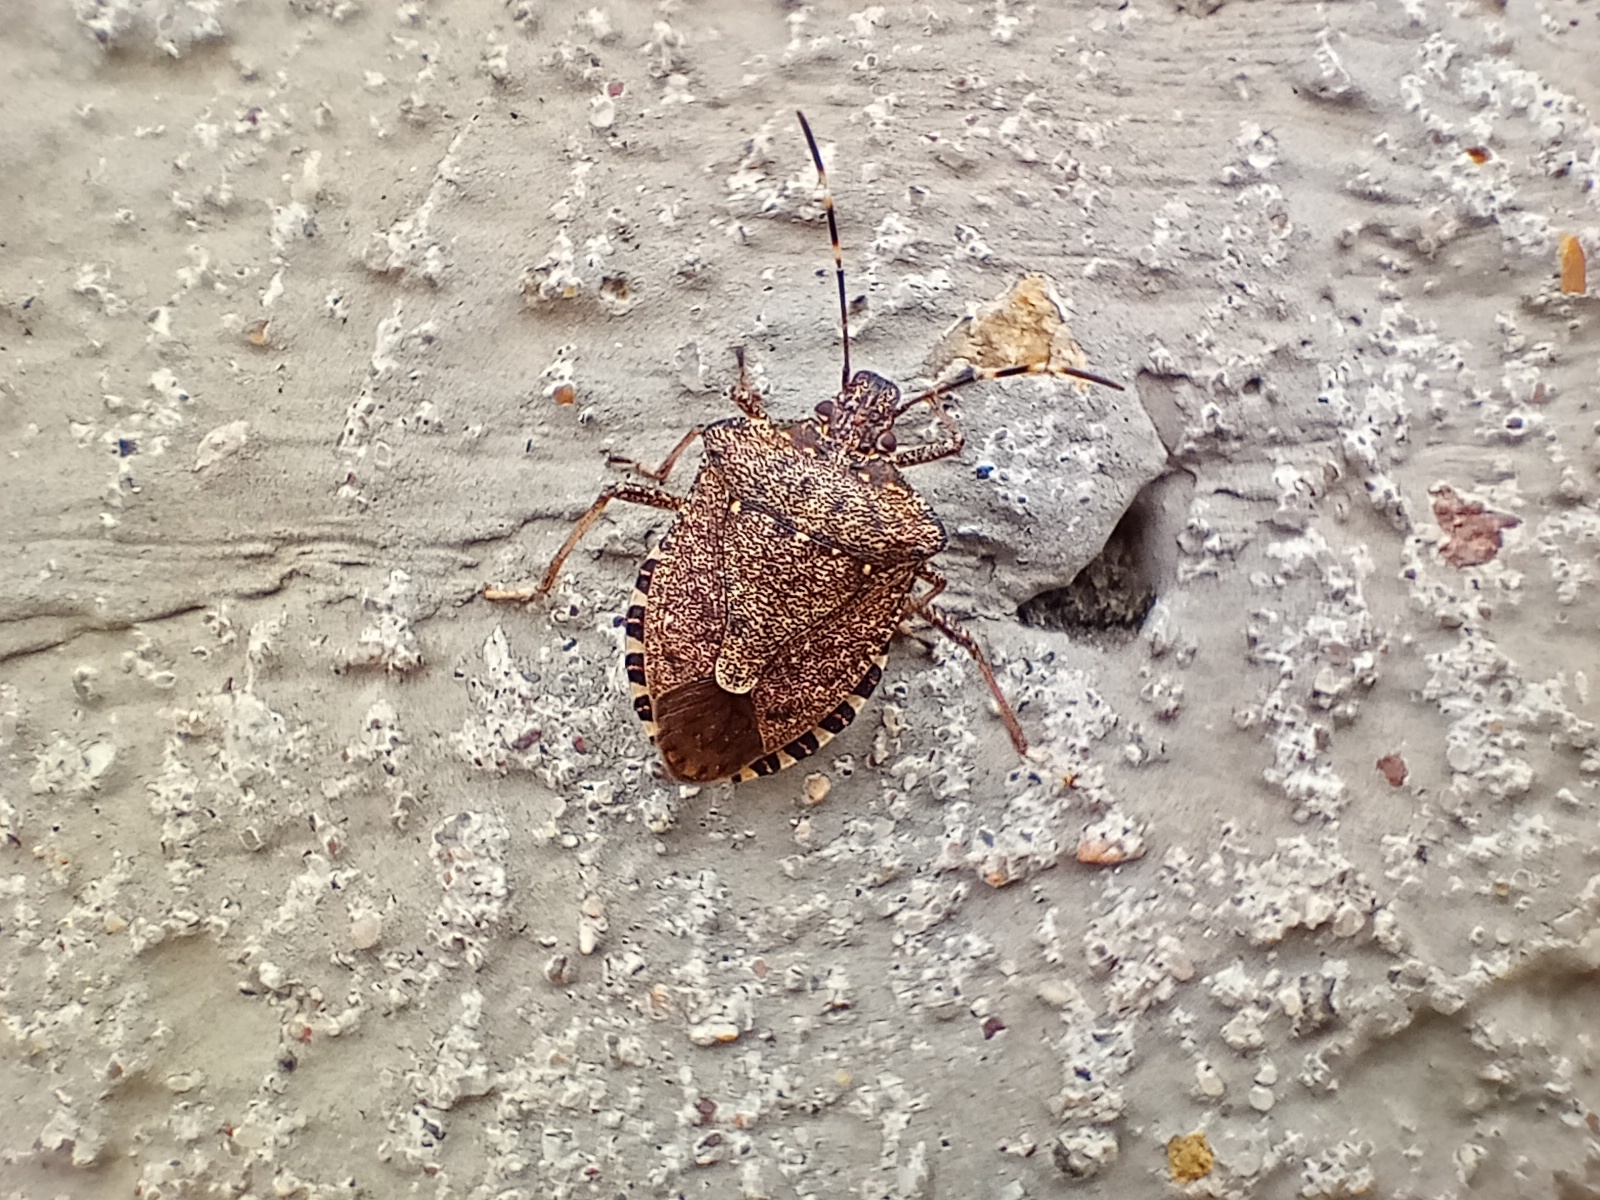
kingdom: Animalia
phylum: Arthropoda
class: Insecta
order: Hemiptera
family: Pentatomidae
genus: Halyomorpha
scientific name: Halyomorpha halys
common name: Brown marmorated stink bug
